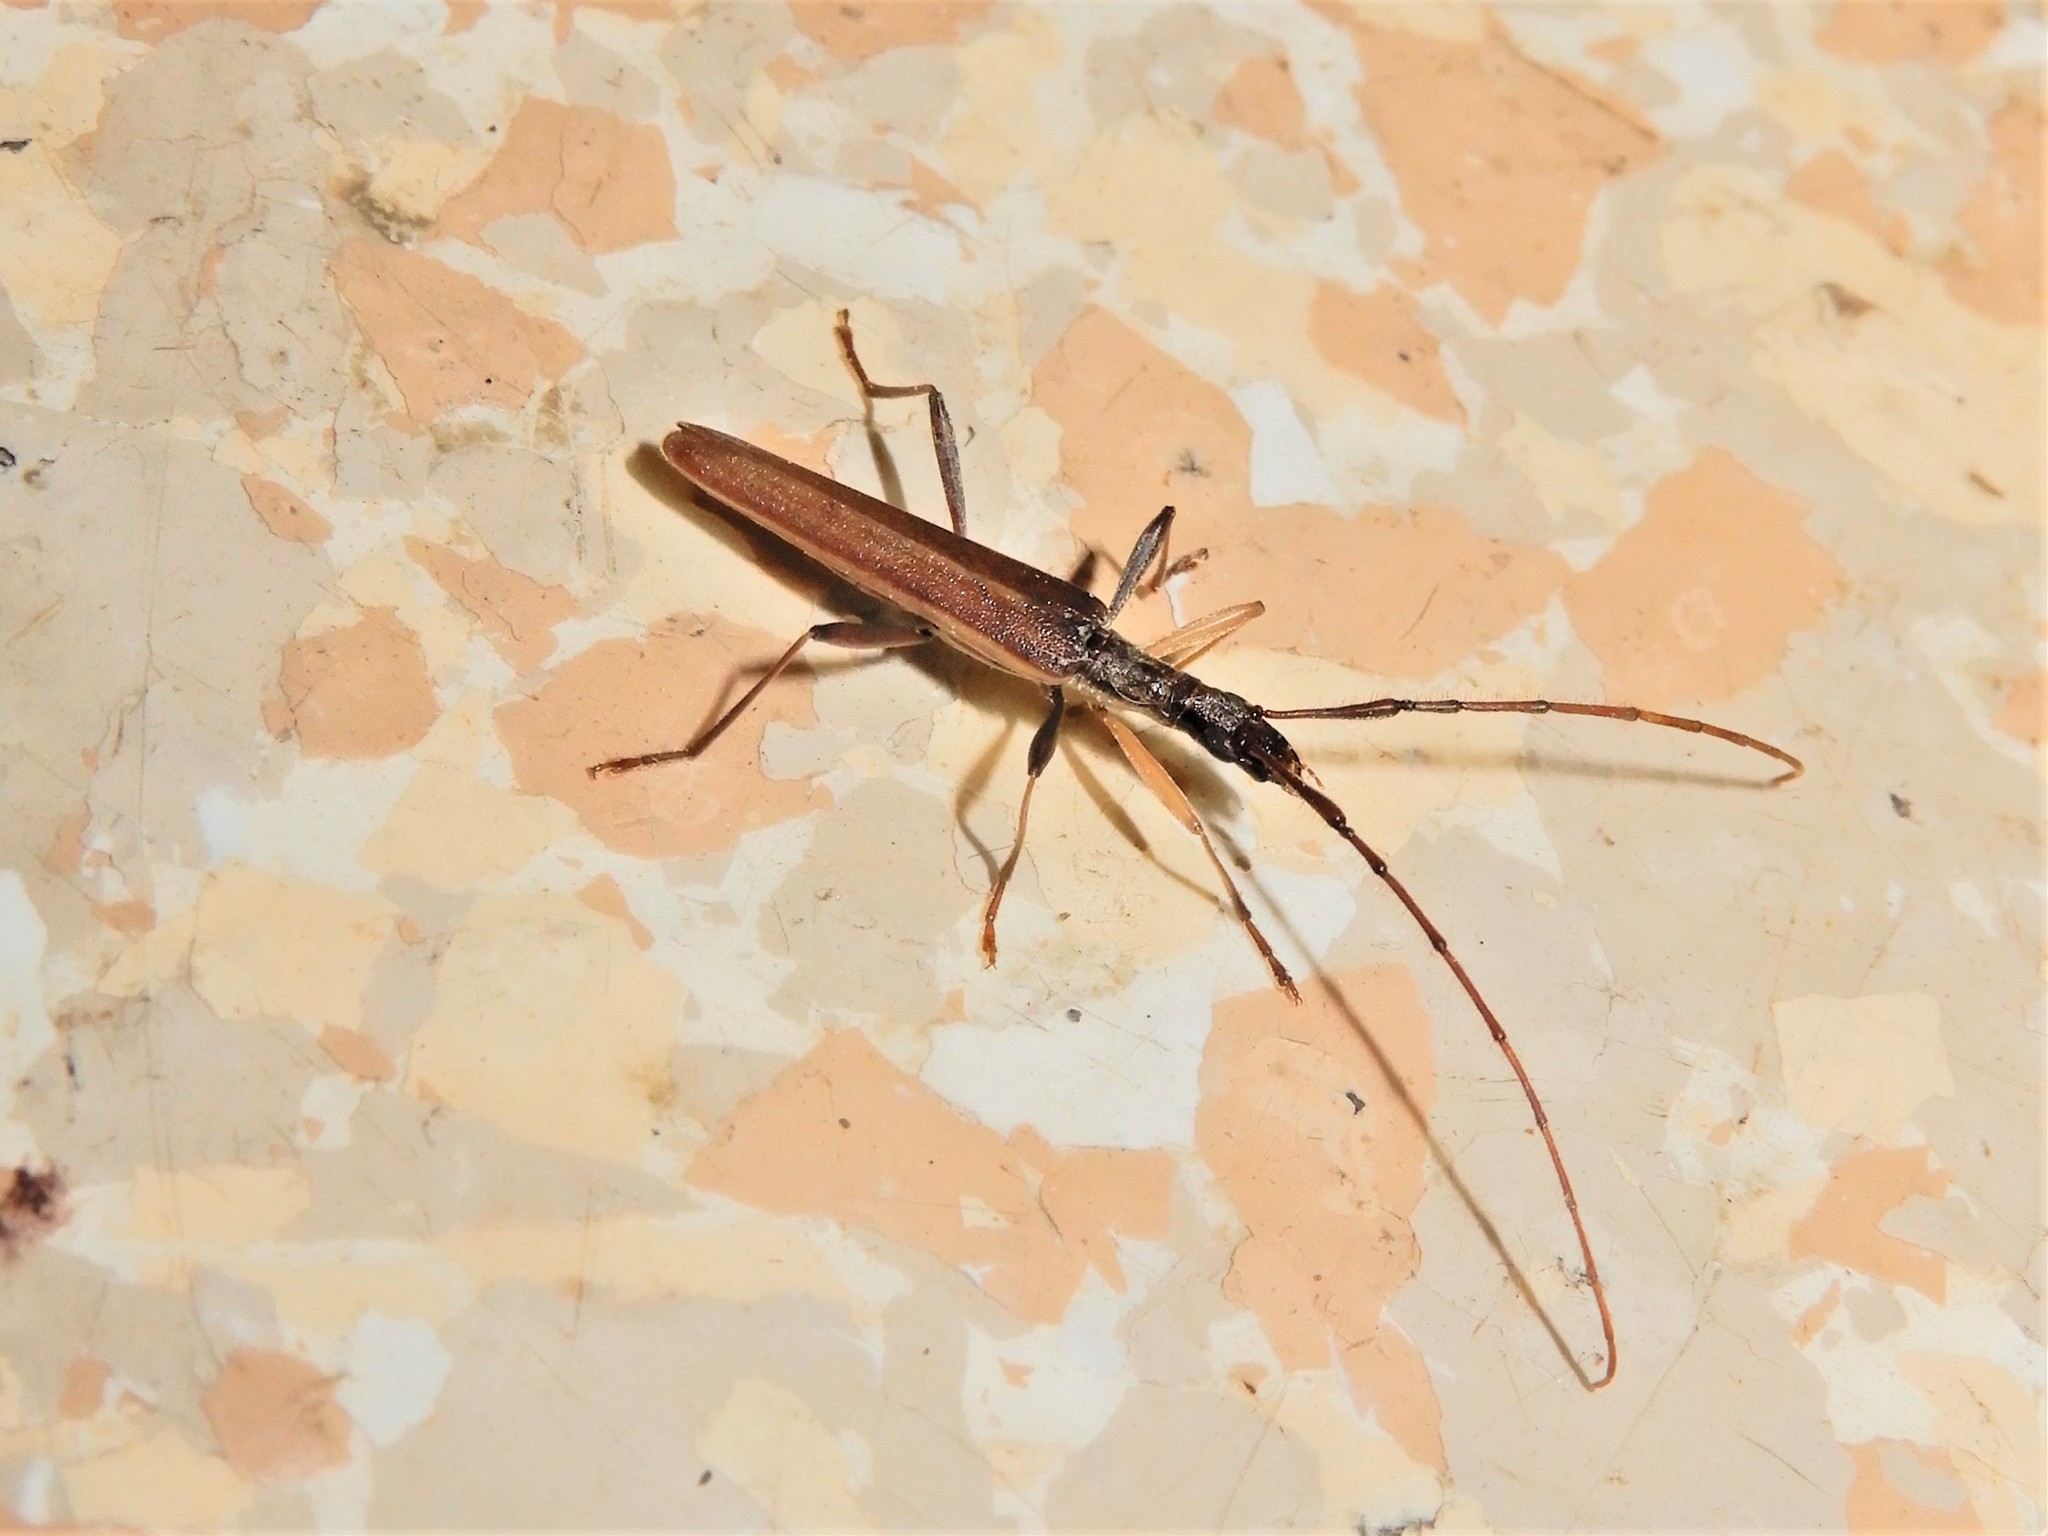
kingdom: Animalia
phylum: Arthropoda
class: Insecta
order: Coleoptera
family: Cerambycidae
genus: Stenopotes
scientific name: Stenopotes pallidus
